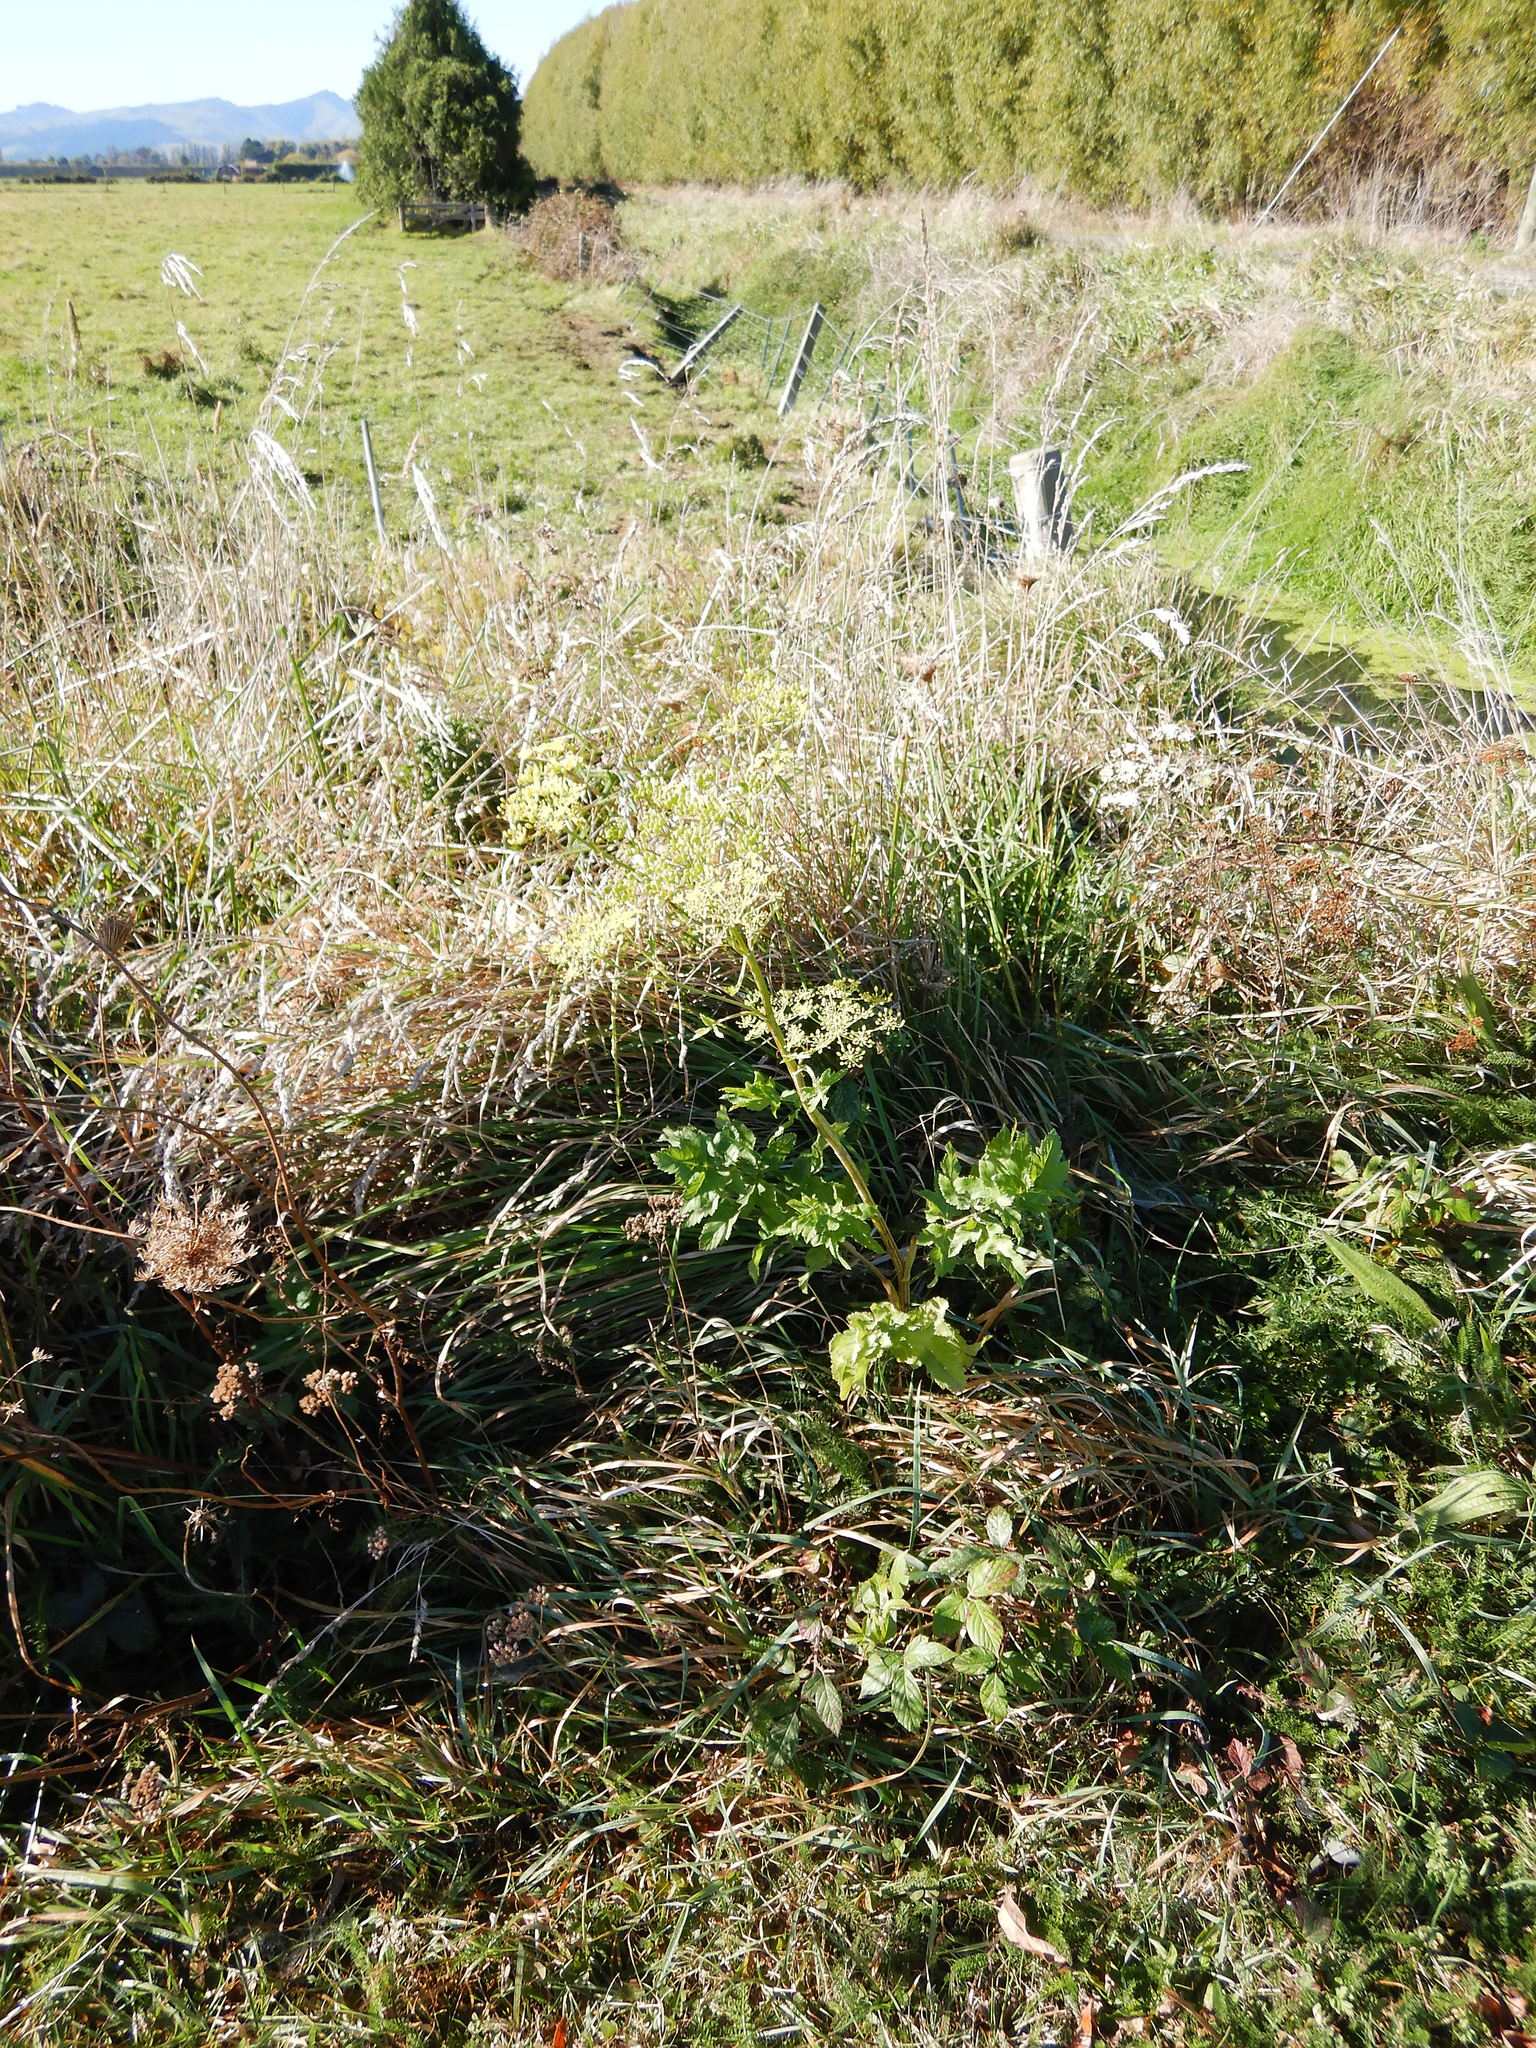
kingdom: Plantae
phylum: Tracheophyta
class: Magnoliopsida
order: Apiales
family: Apiaceae
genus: Pastinaca
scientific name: Pastinaca sativa
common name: Wild parsnip
